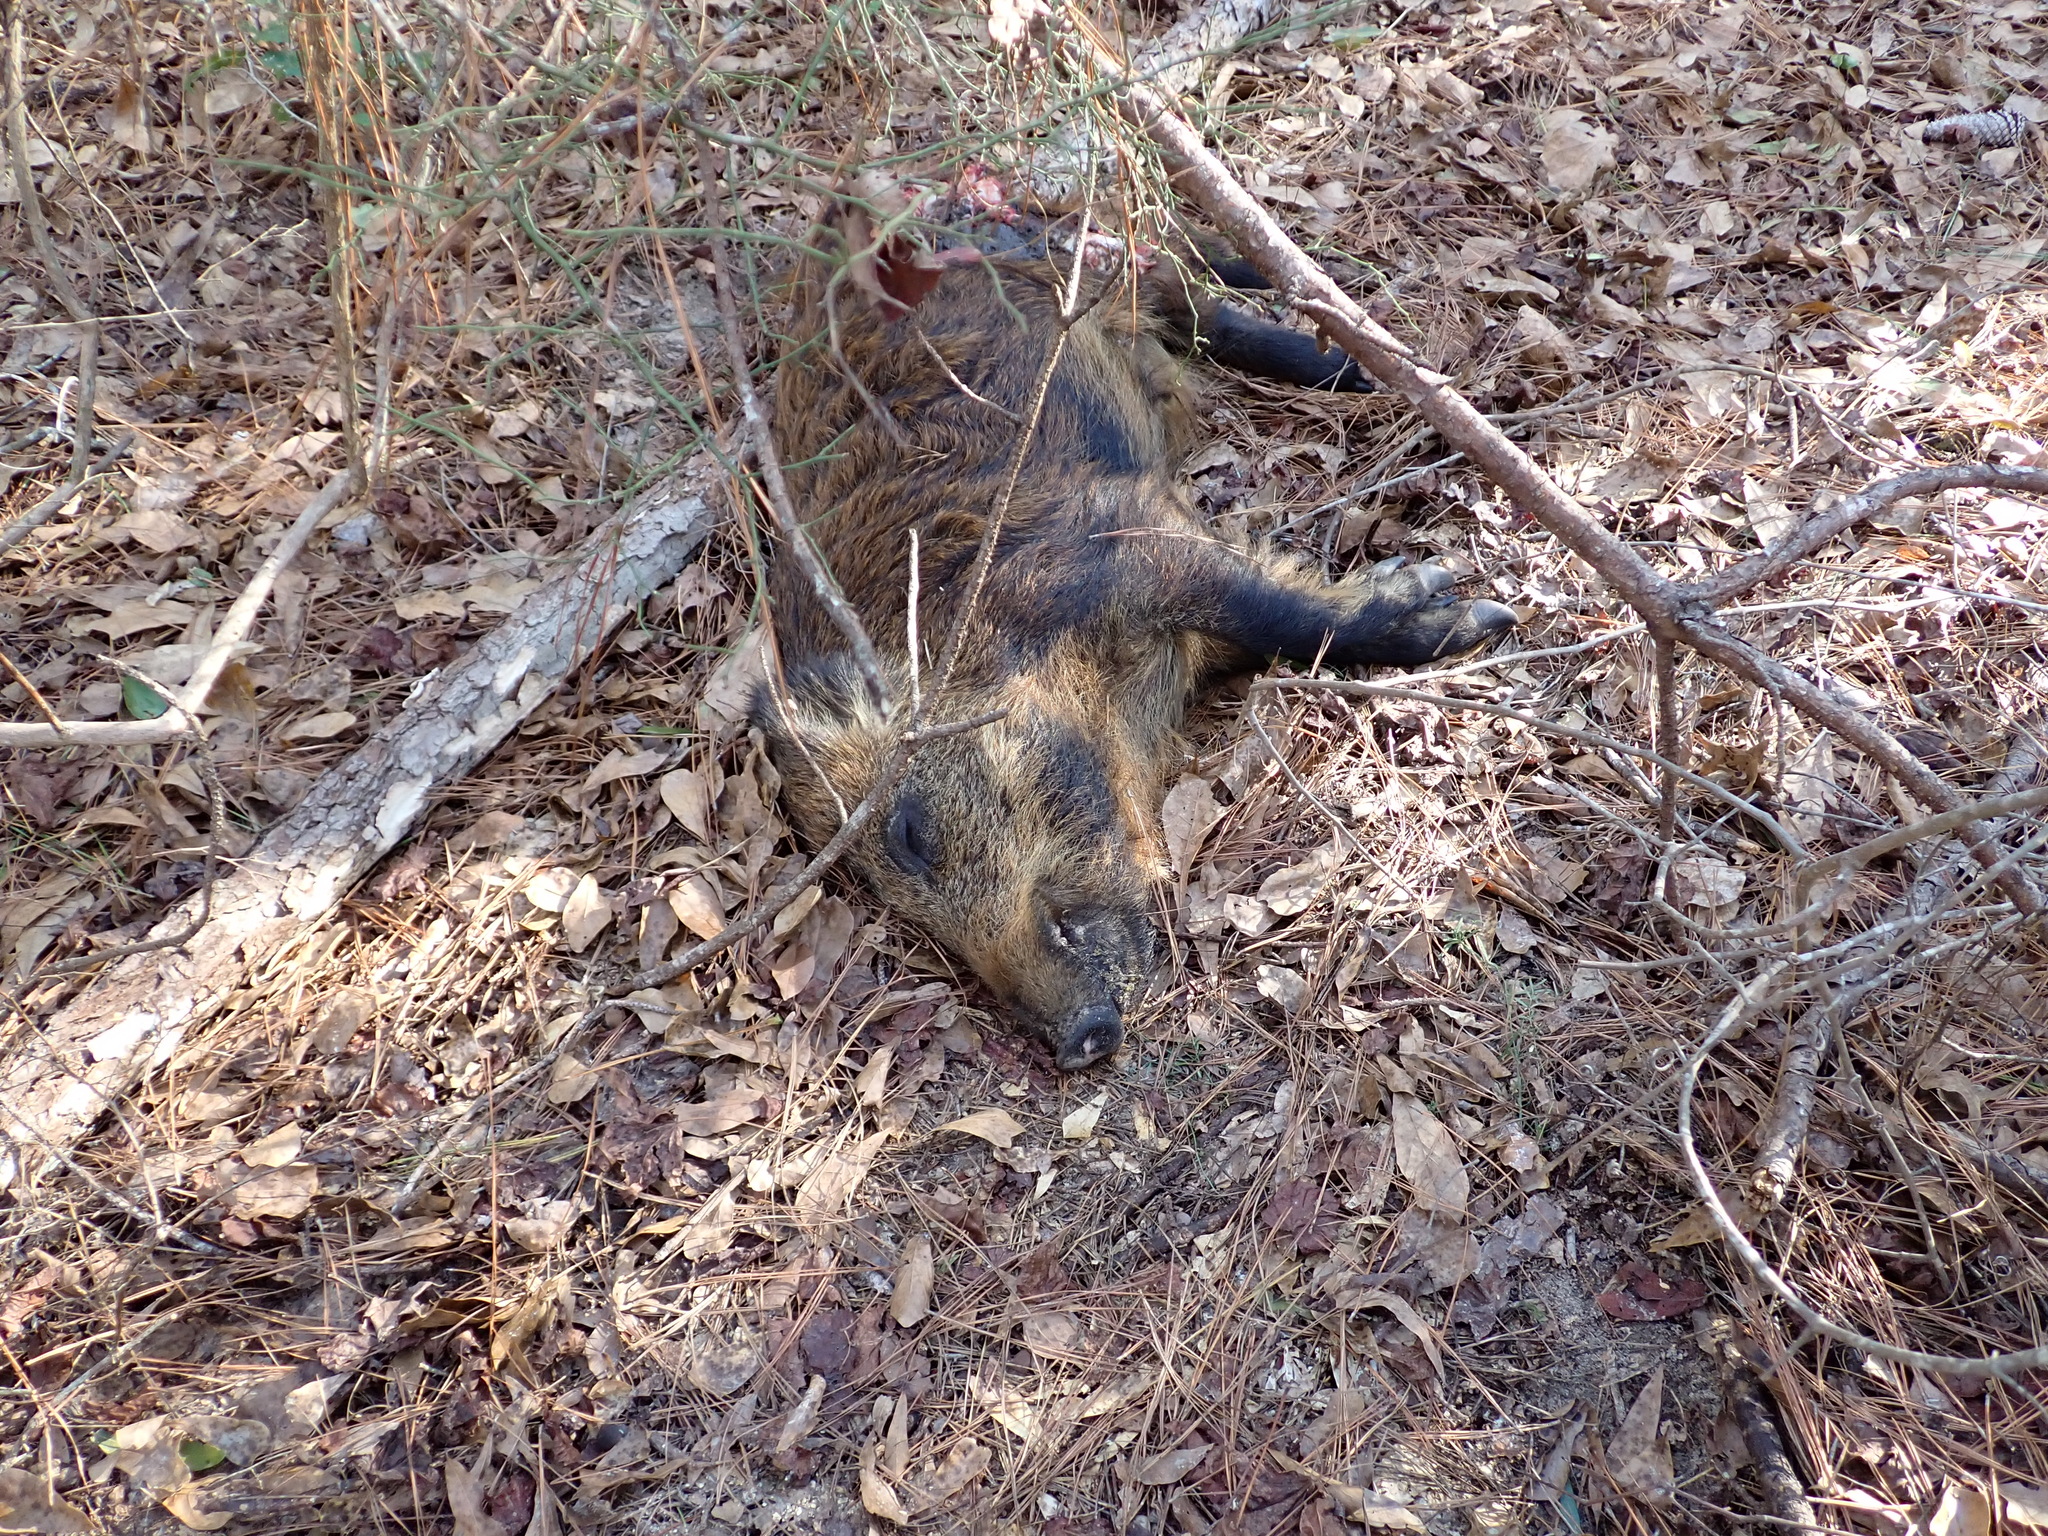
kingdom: Animalia
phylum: Chordata
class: Mammalia
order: Artiodactyla
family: Suidae
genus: Sus
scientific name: Sus scrofa
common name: Wild boar
